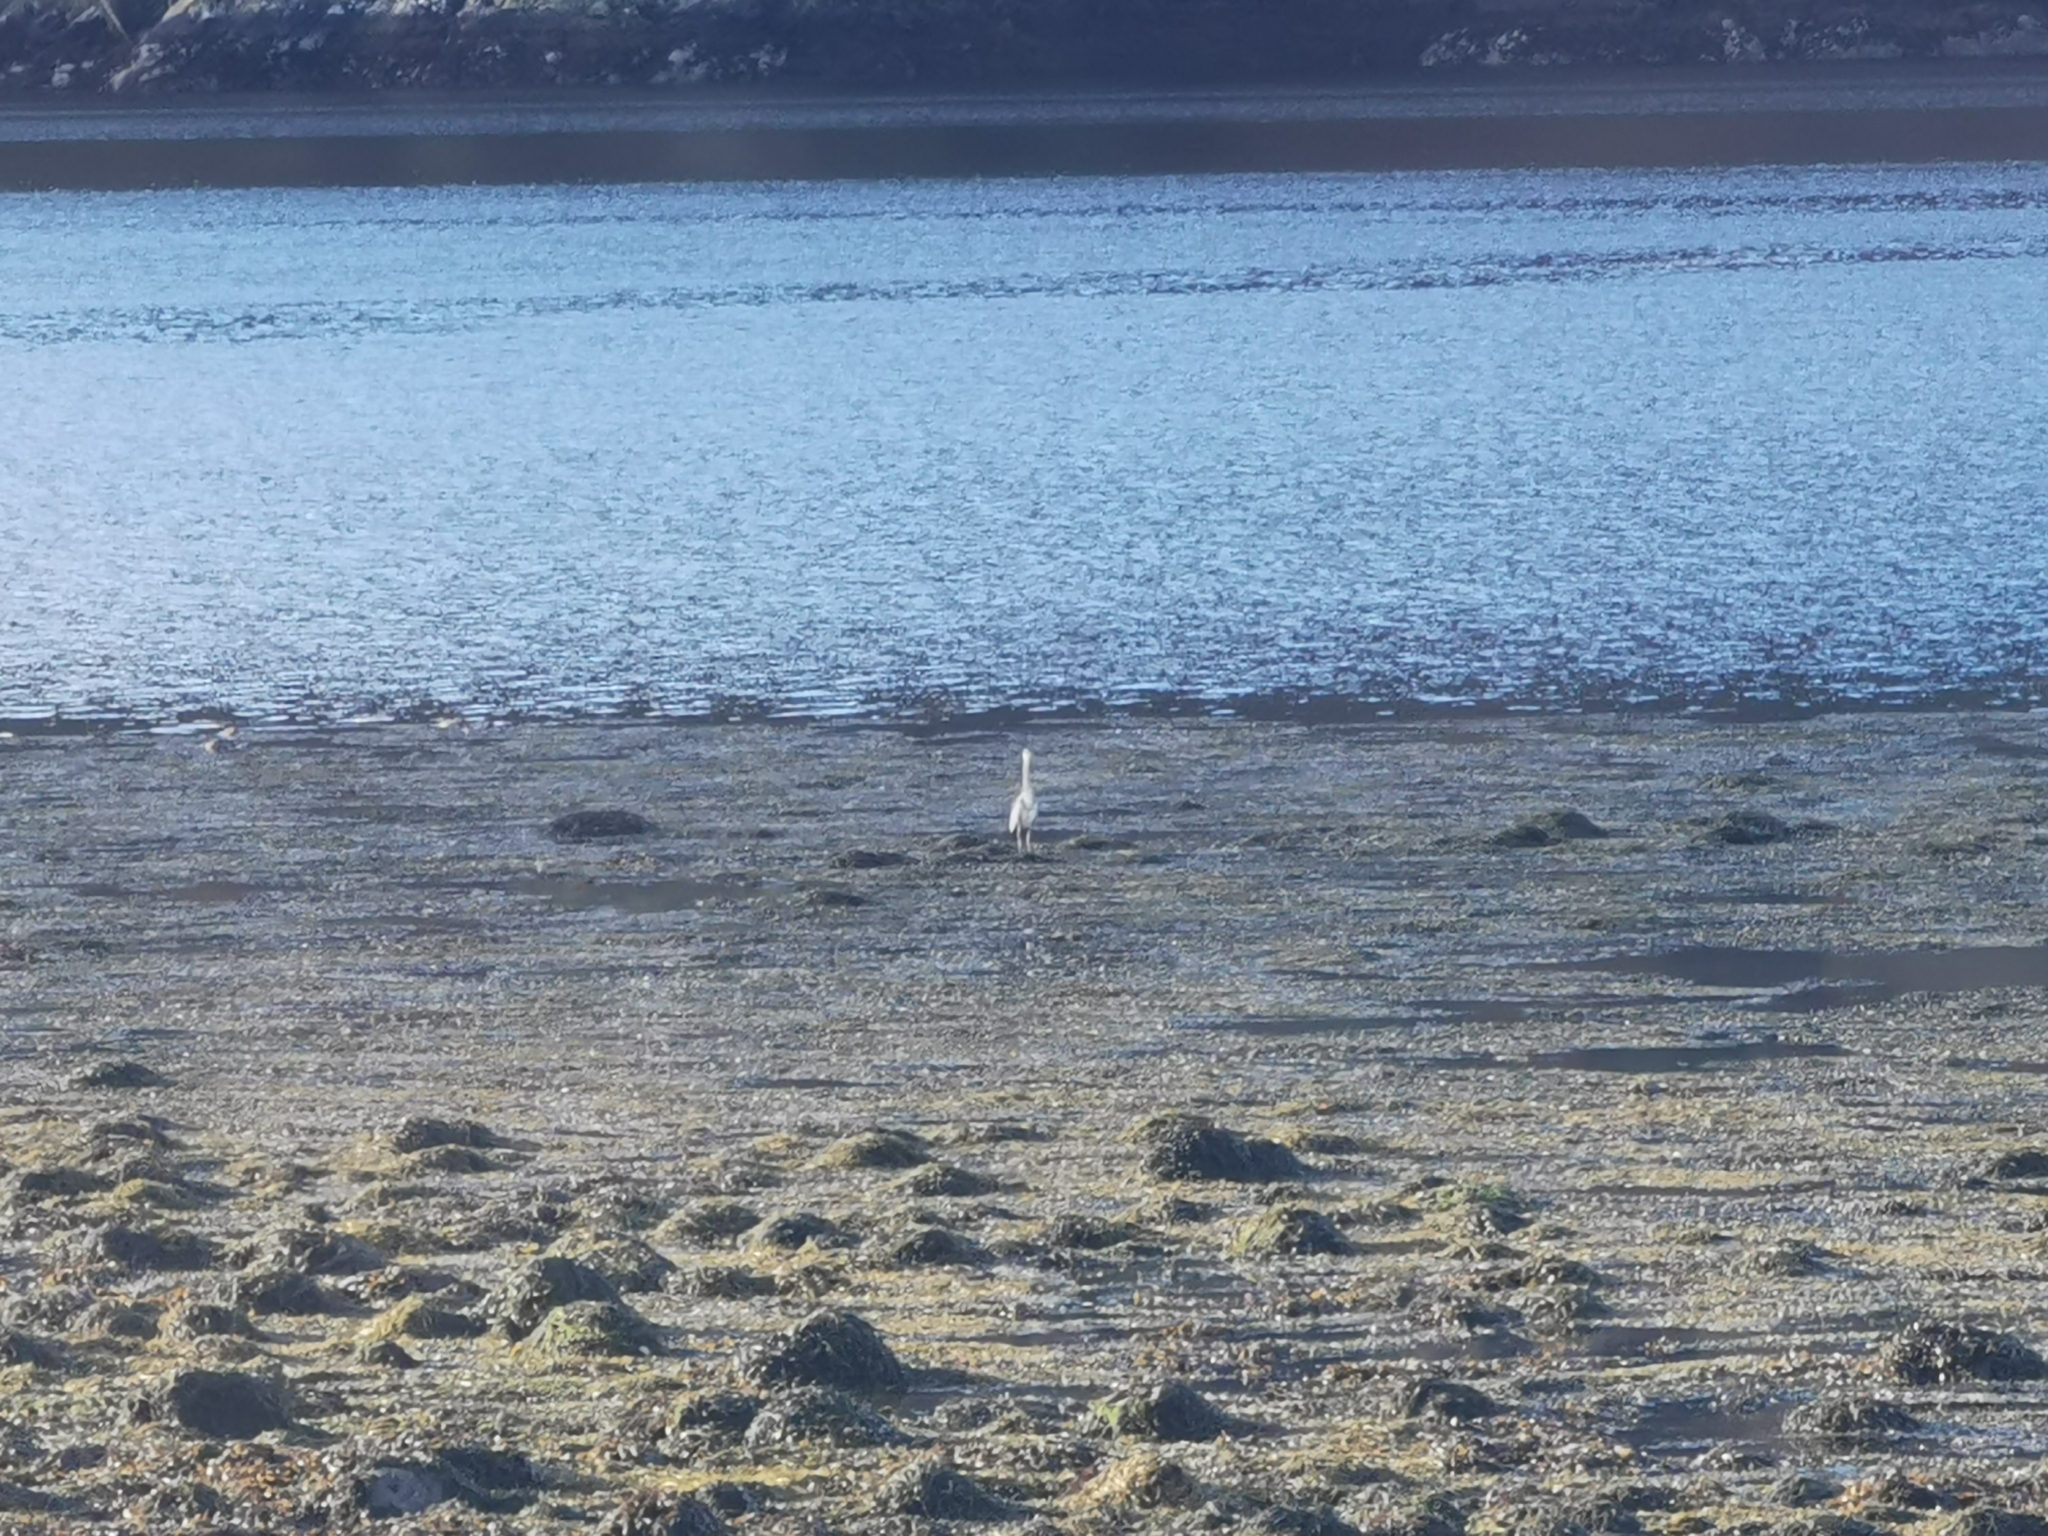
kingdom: Animalia
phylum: Chordata
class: Aves
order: Pelecaniformes
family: Ardeidae
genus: Ardea
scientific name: Ardea cinerea
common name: Grey heron
